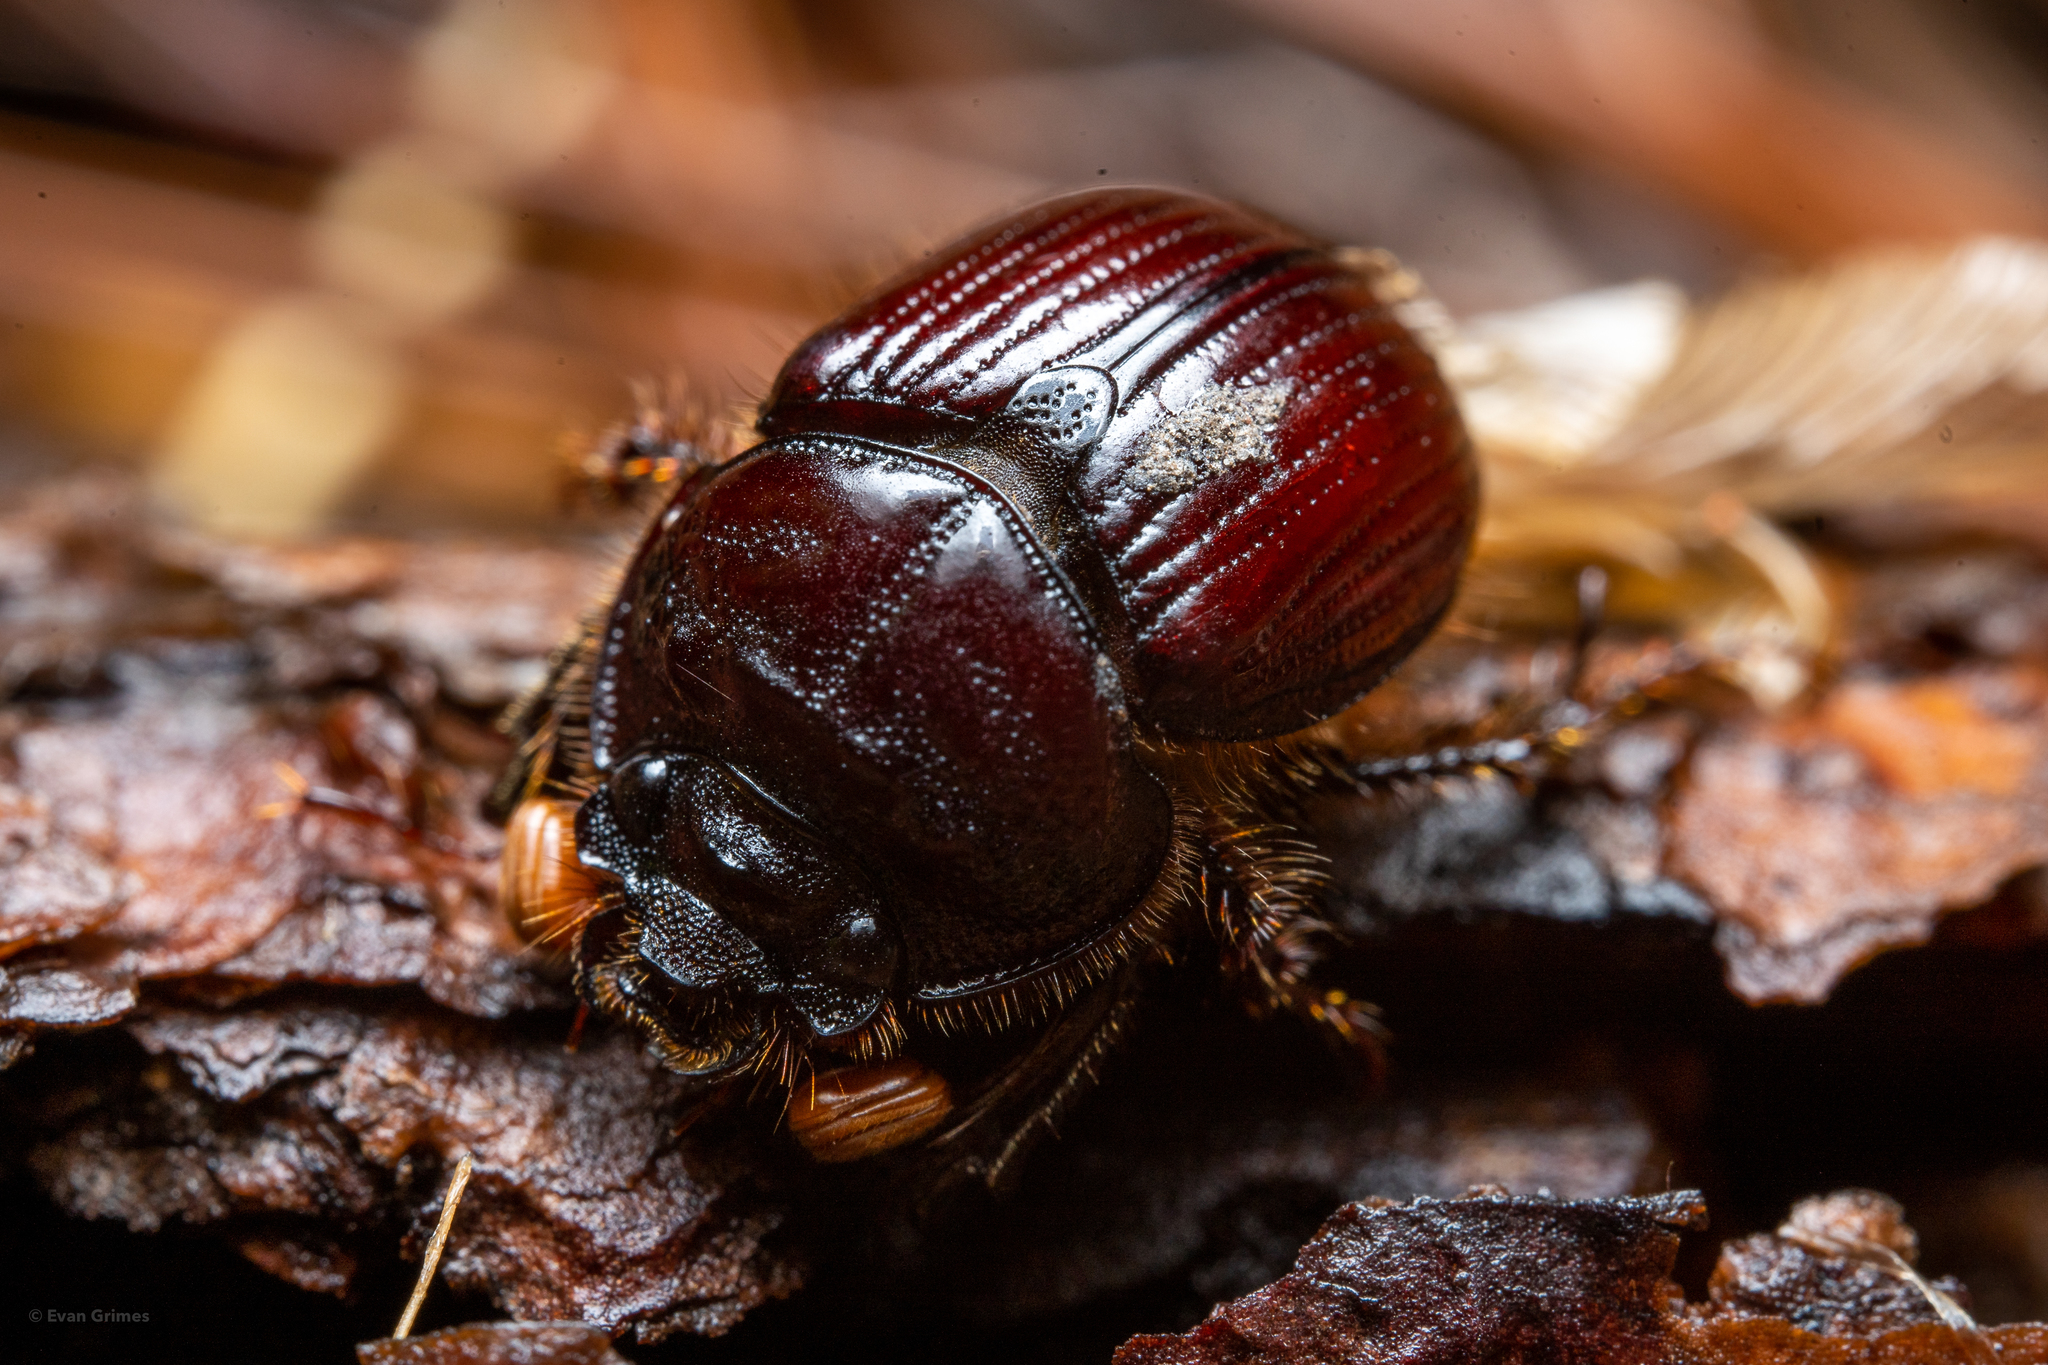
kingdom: Animalia
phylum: Arthropoda
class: Insecta
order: Coleoptera
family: Geotrupidae
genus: Bolbelasmus
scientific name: Bolbelasmus lazarus
